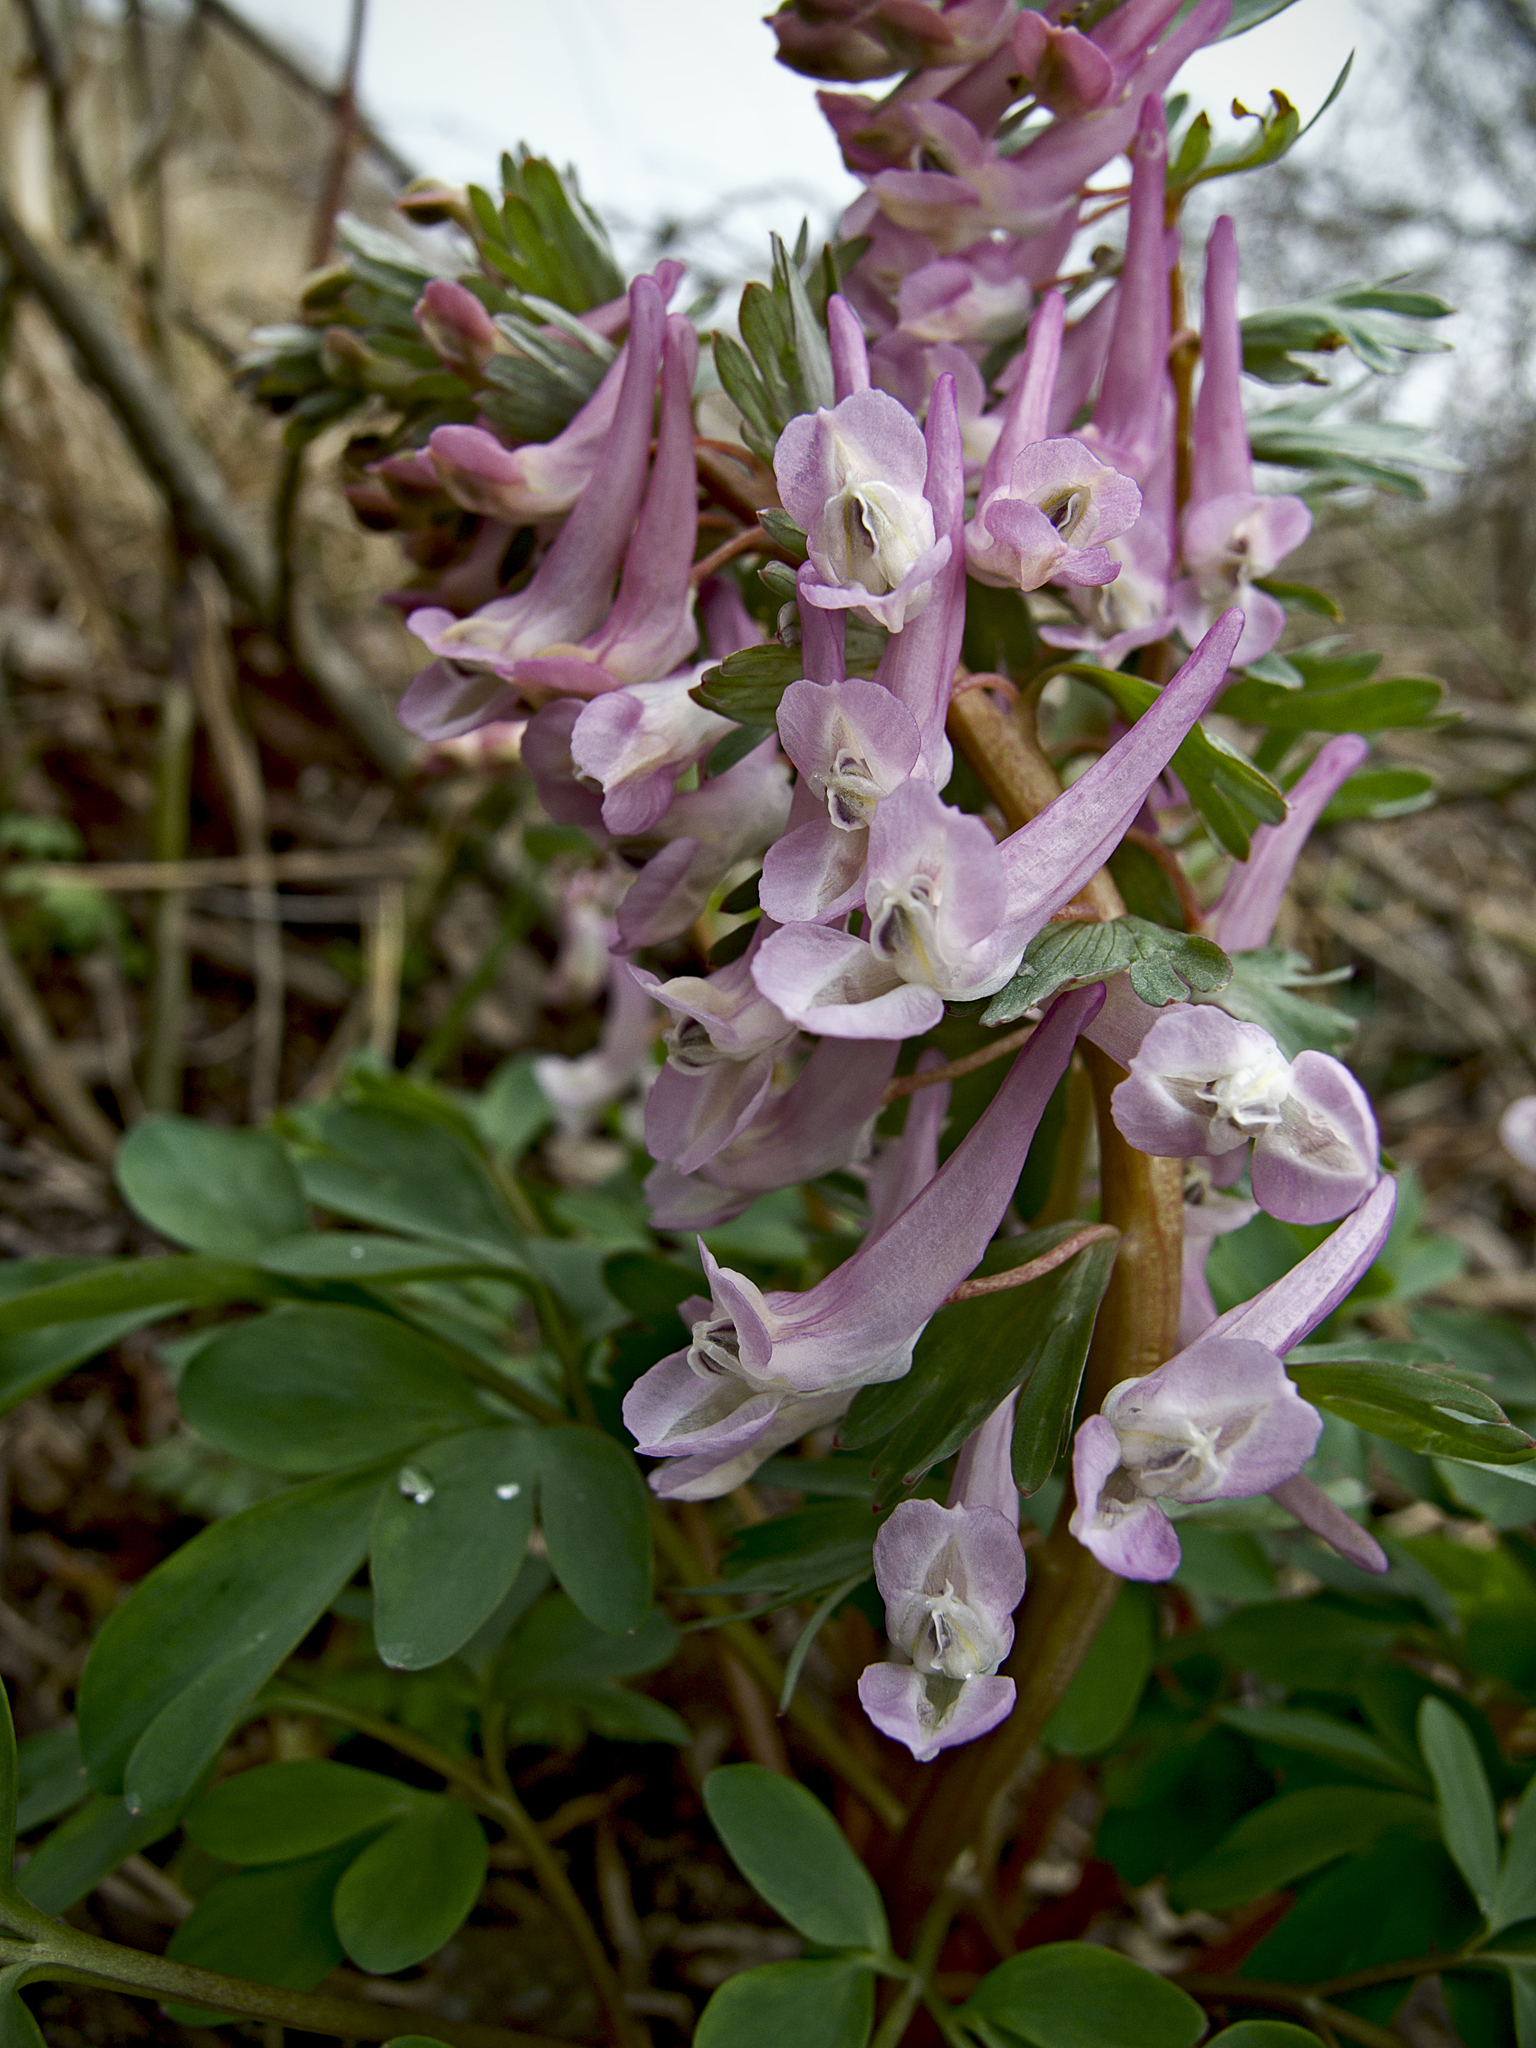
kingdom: Plantae
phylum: Tracheophyta
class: Magnoliopsida
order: Ranunculales
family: Papaveraceae
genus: Corydalis
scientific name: Corydalis solida
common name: Bird-in-a-bush
